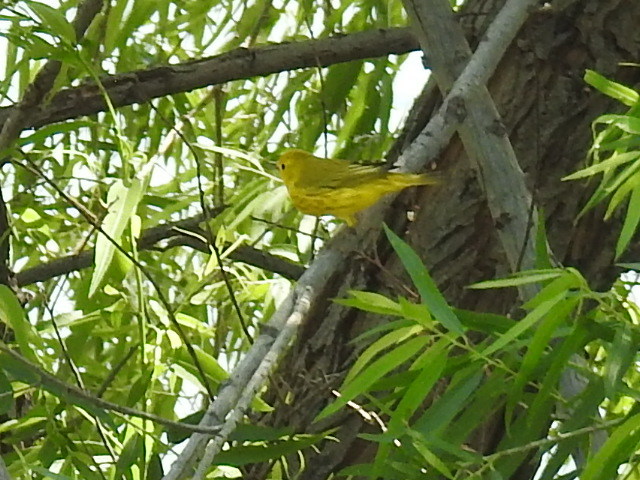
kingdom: Animalia
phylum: Chordata
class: Aves
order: Passeriformes
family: Parulidae
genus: Setophaga
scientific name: Setophaga petechia
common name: Yellow warbler
